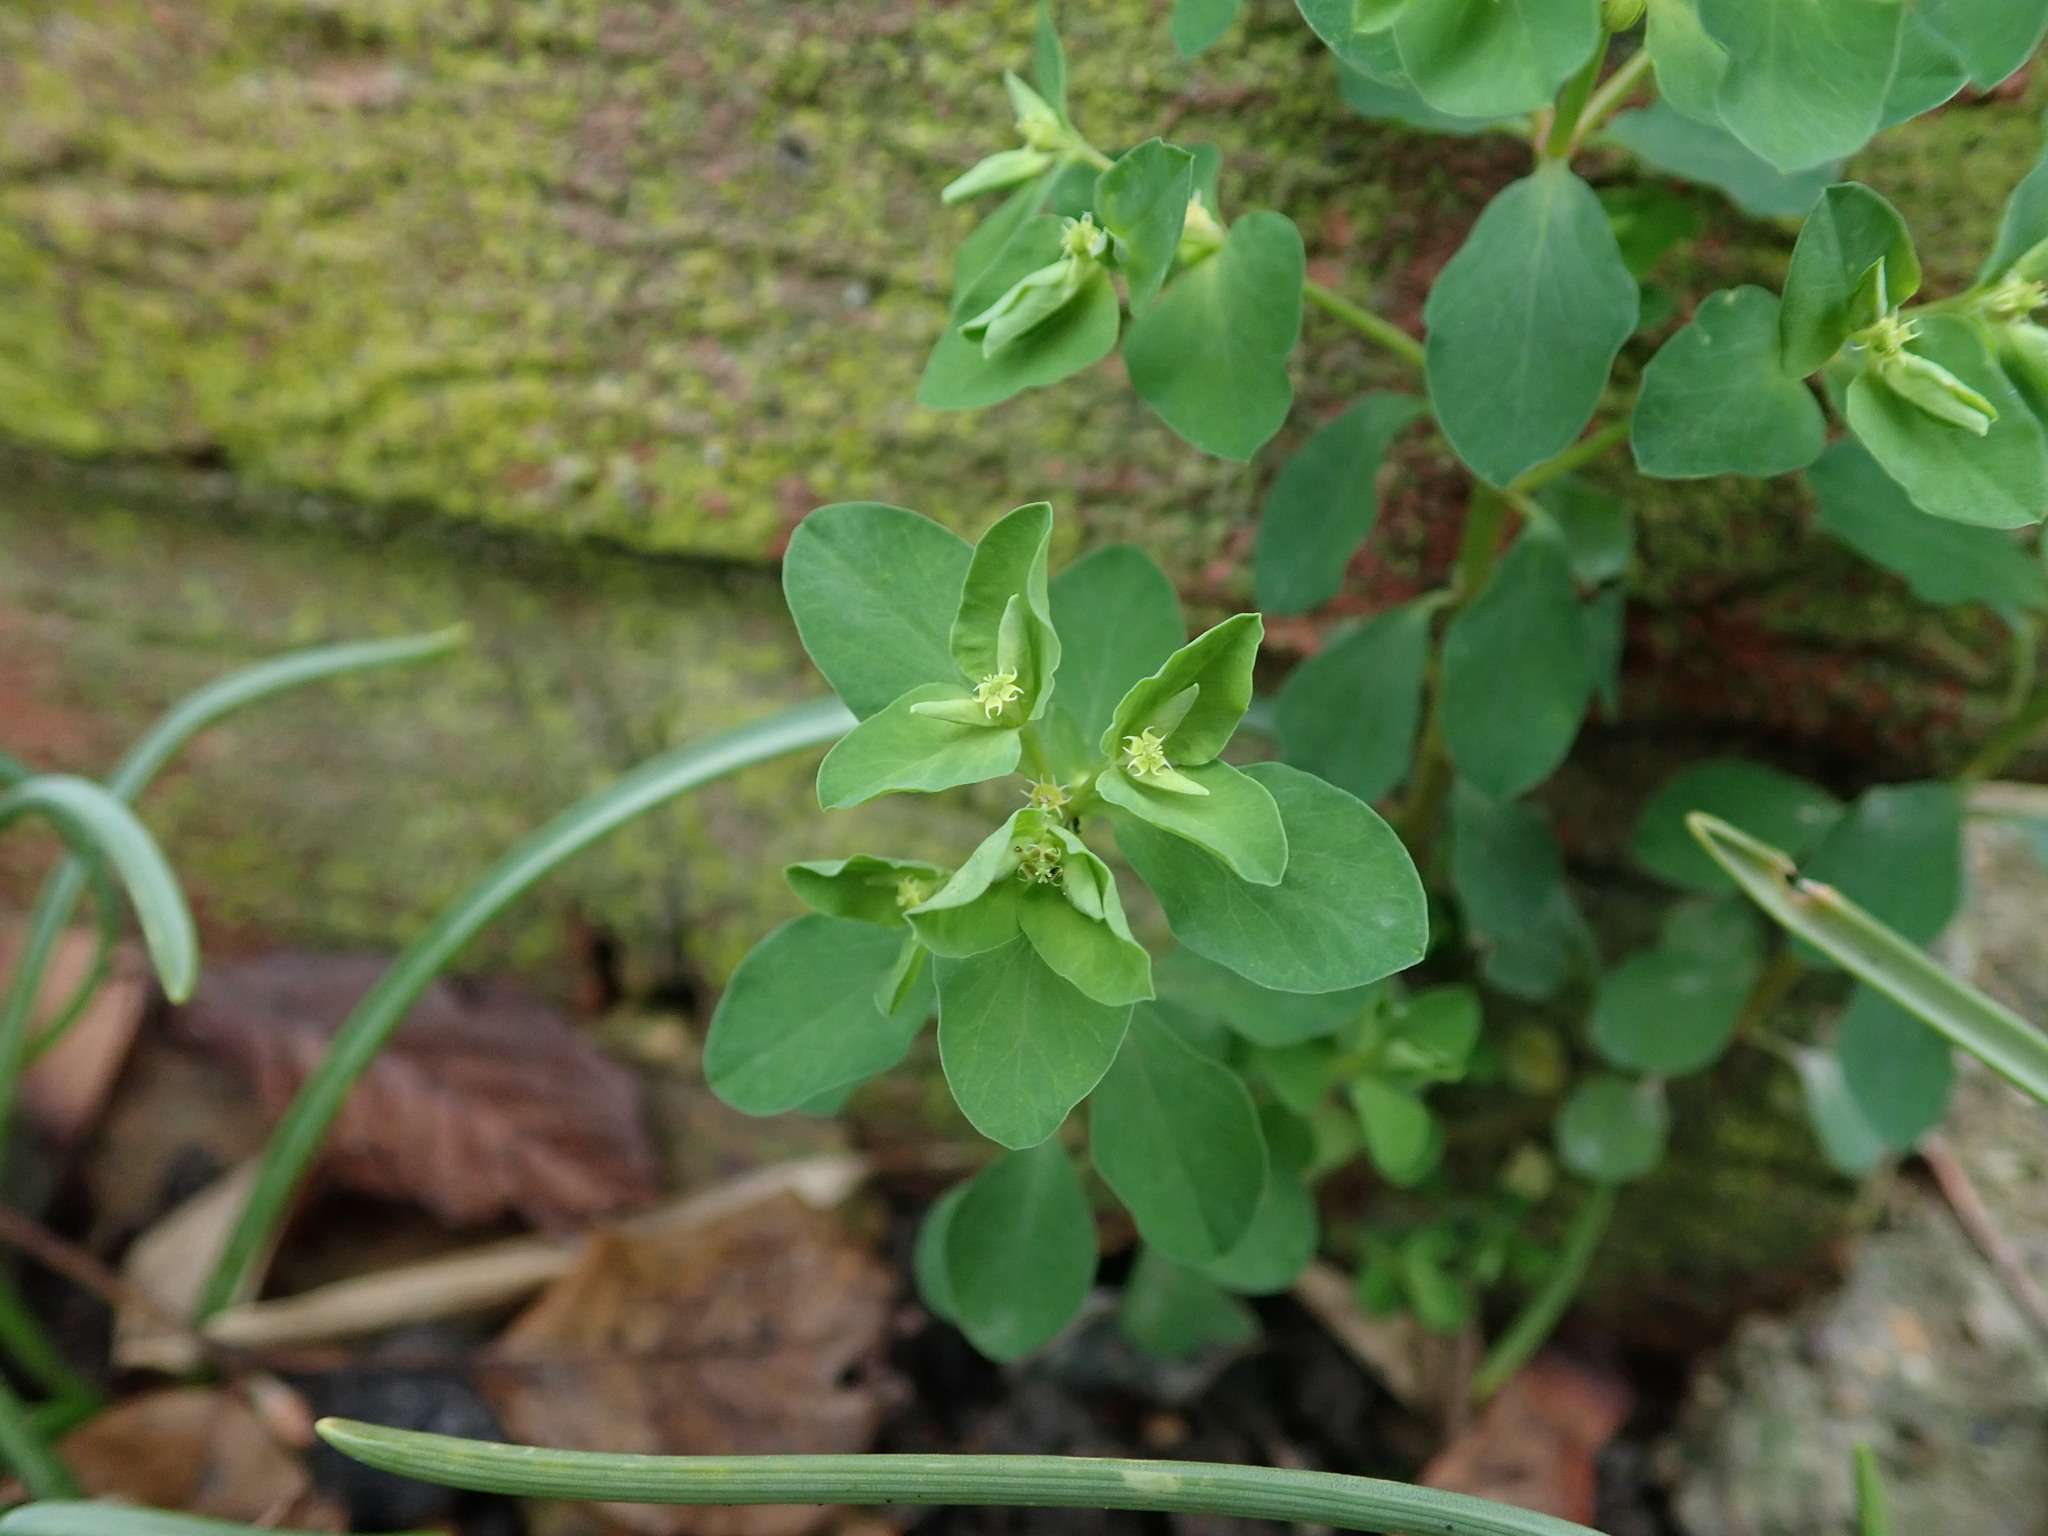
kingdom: Plantae
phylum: Tracheophyta
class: Magnoliopsida
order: Malpighiales
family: Euphorbiaceae
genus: Euphorbia
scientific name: Euphorbia peplus
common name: Petty spurge
